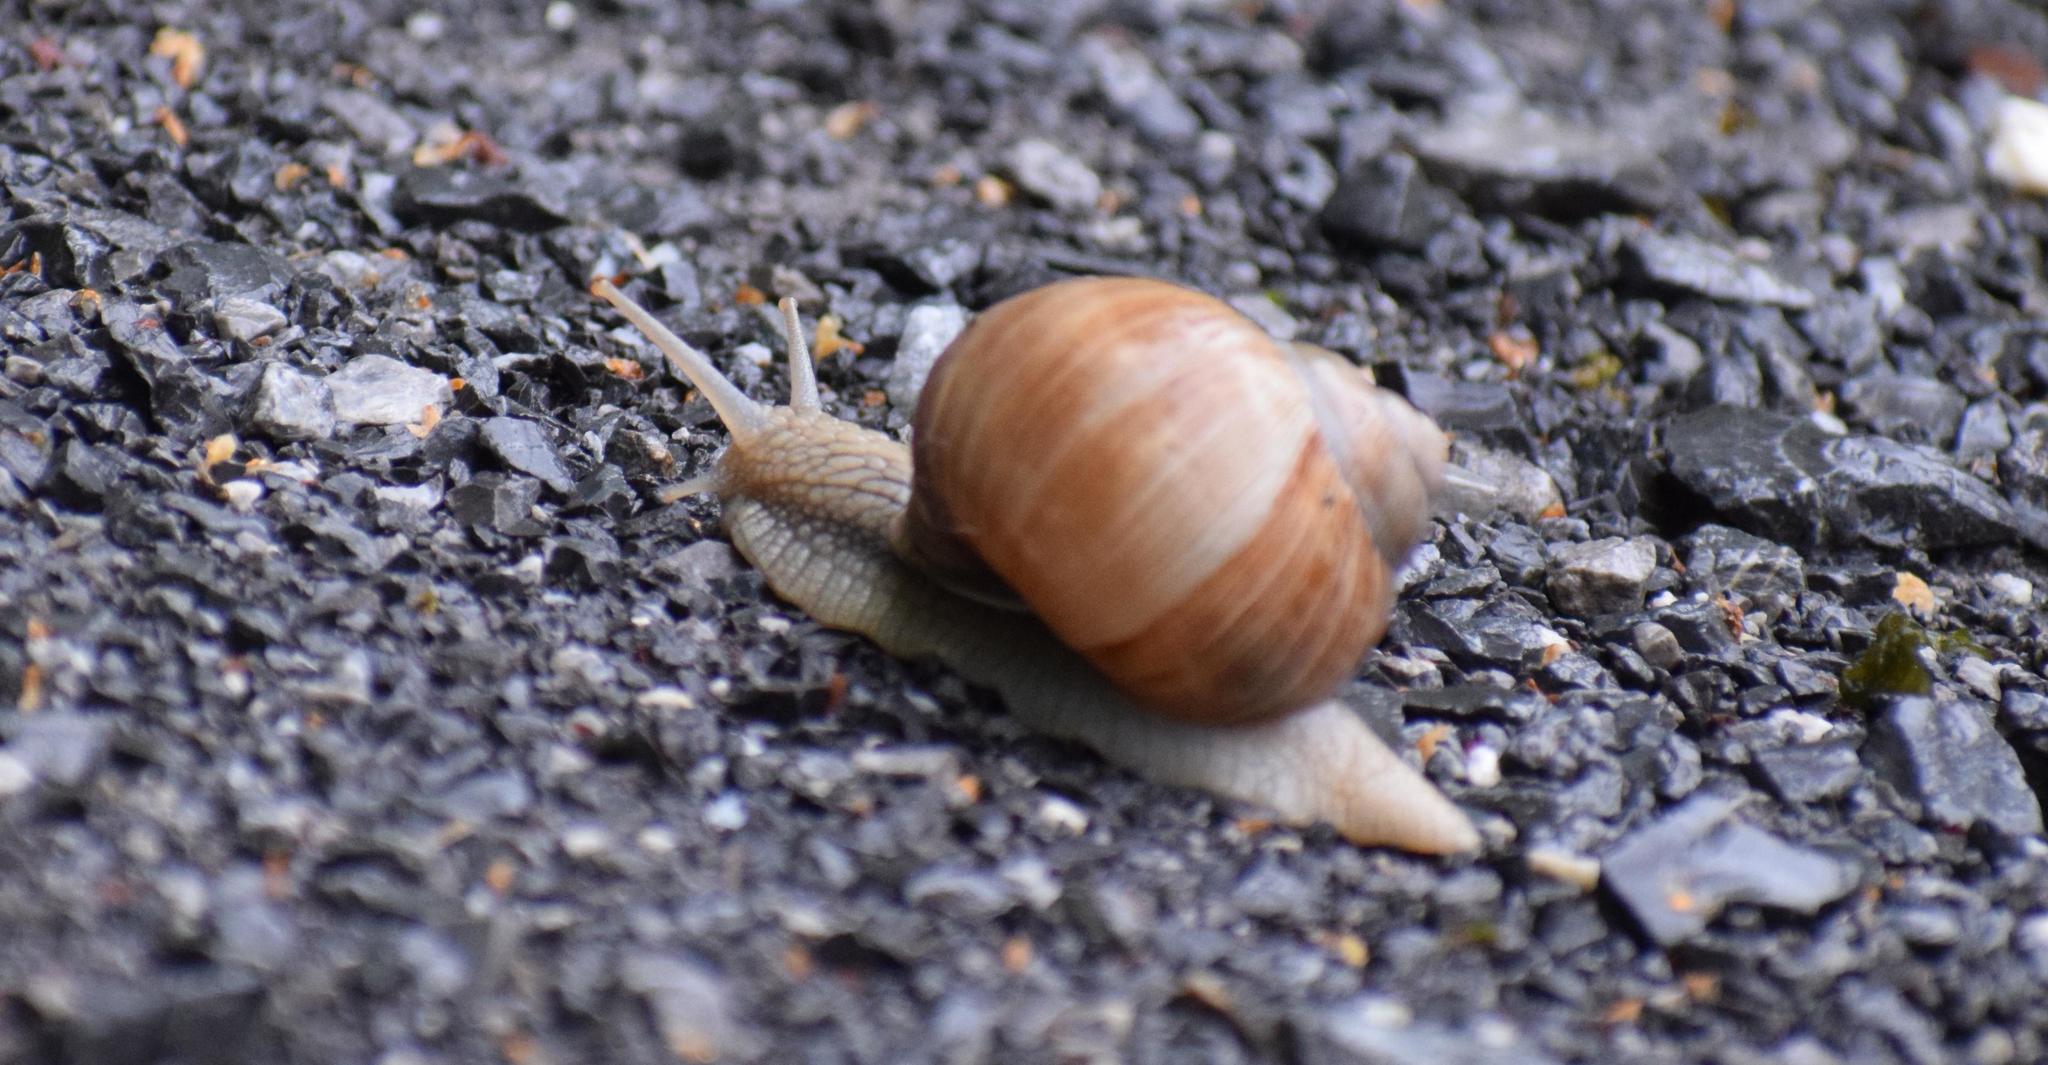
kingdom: Animalia
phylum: Mollusca
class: Gastropoda
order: Stylommatophora
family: Helicidae
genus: Helix
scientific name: Helix pomatia
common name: Roman snail
